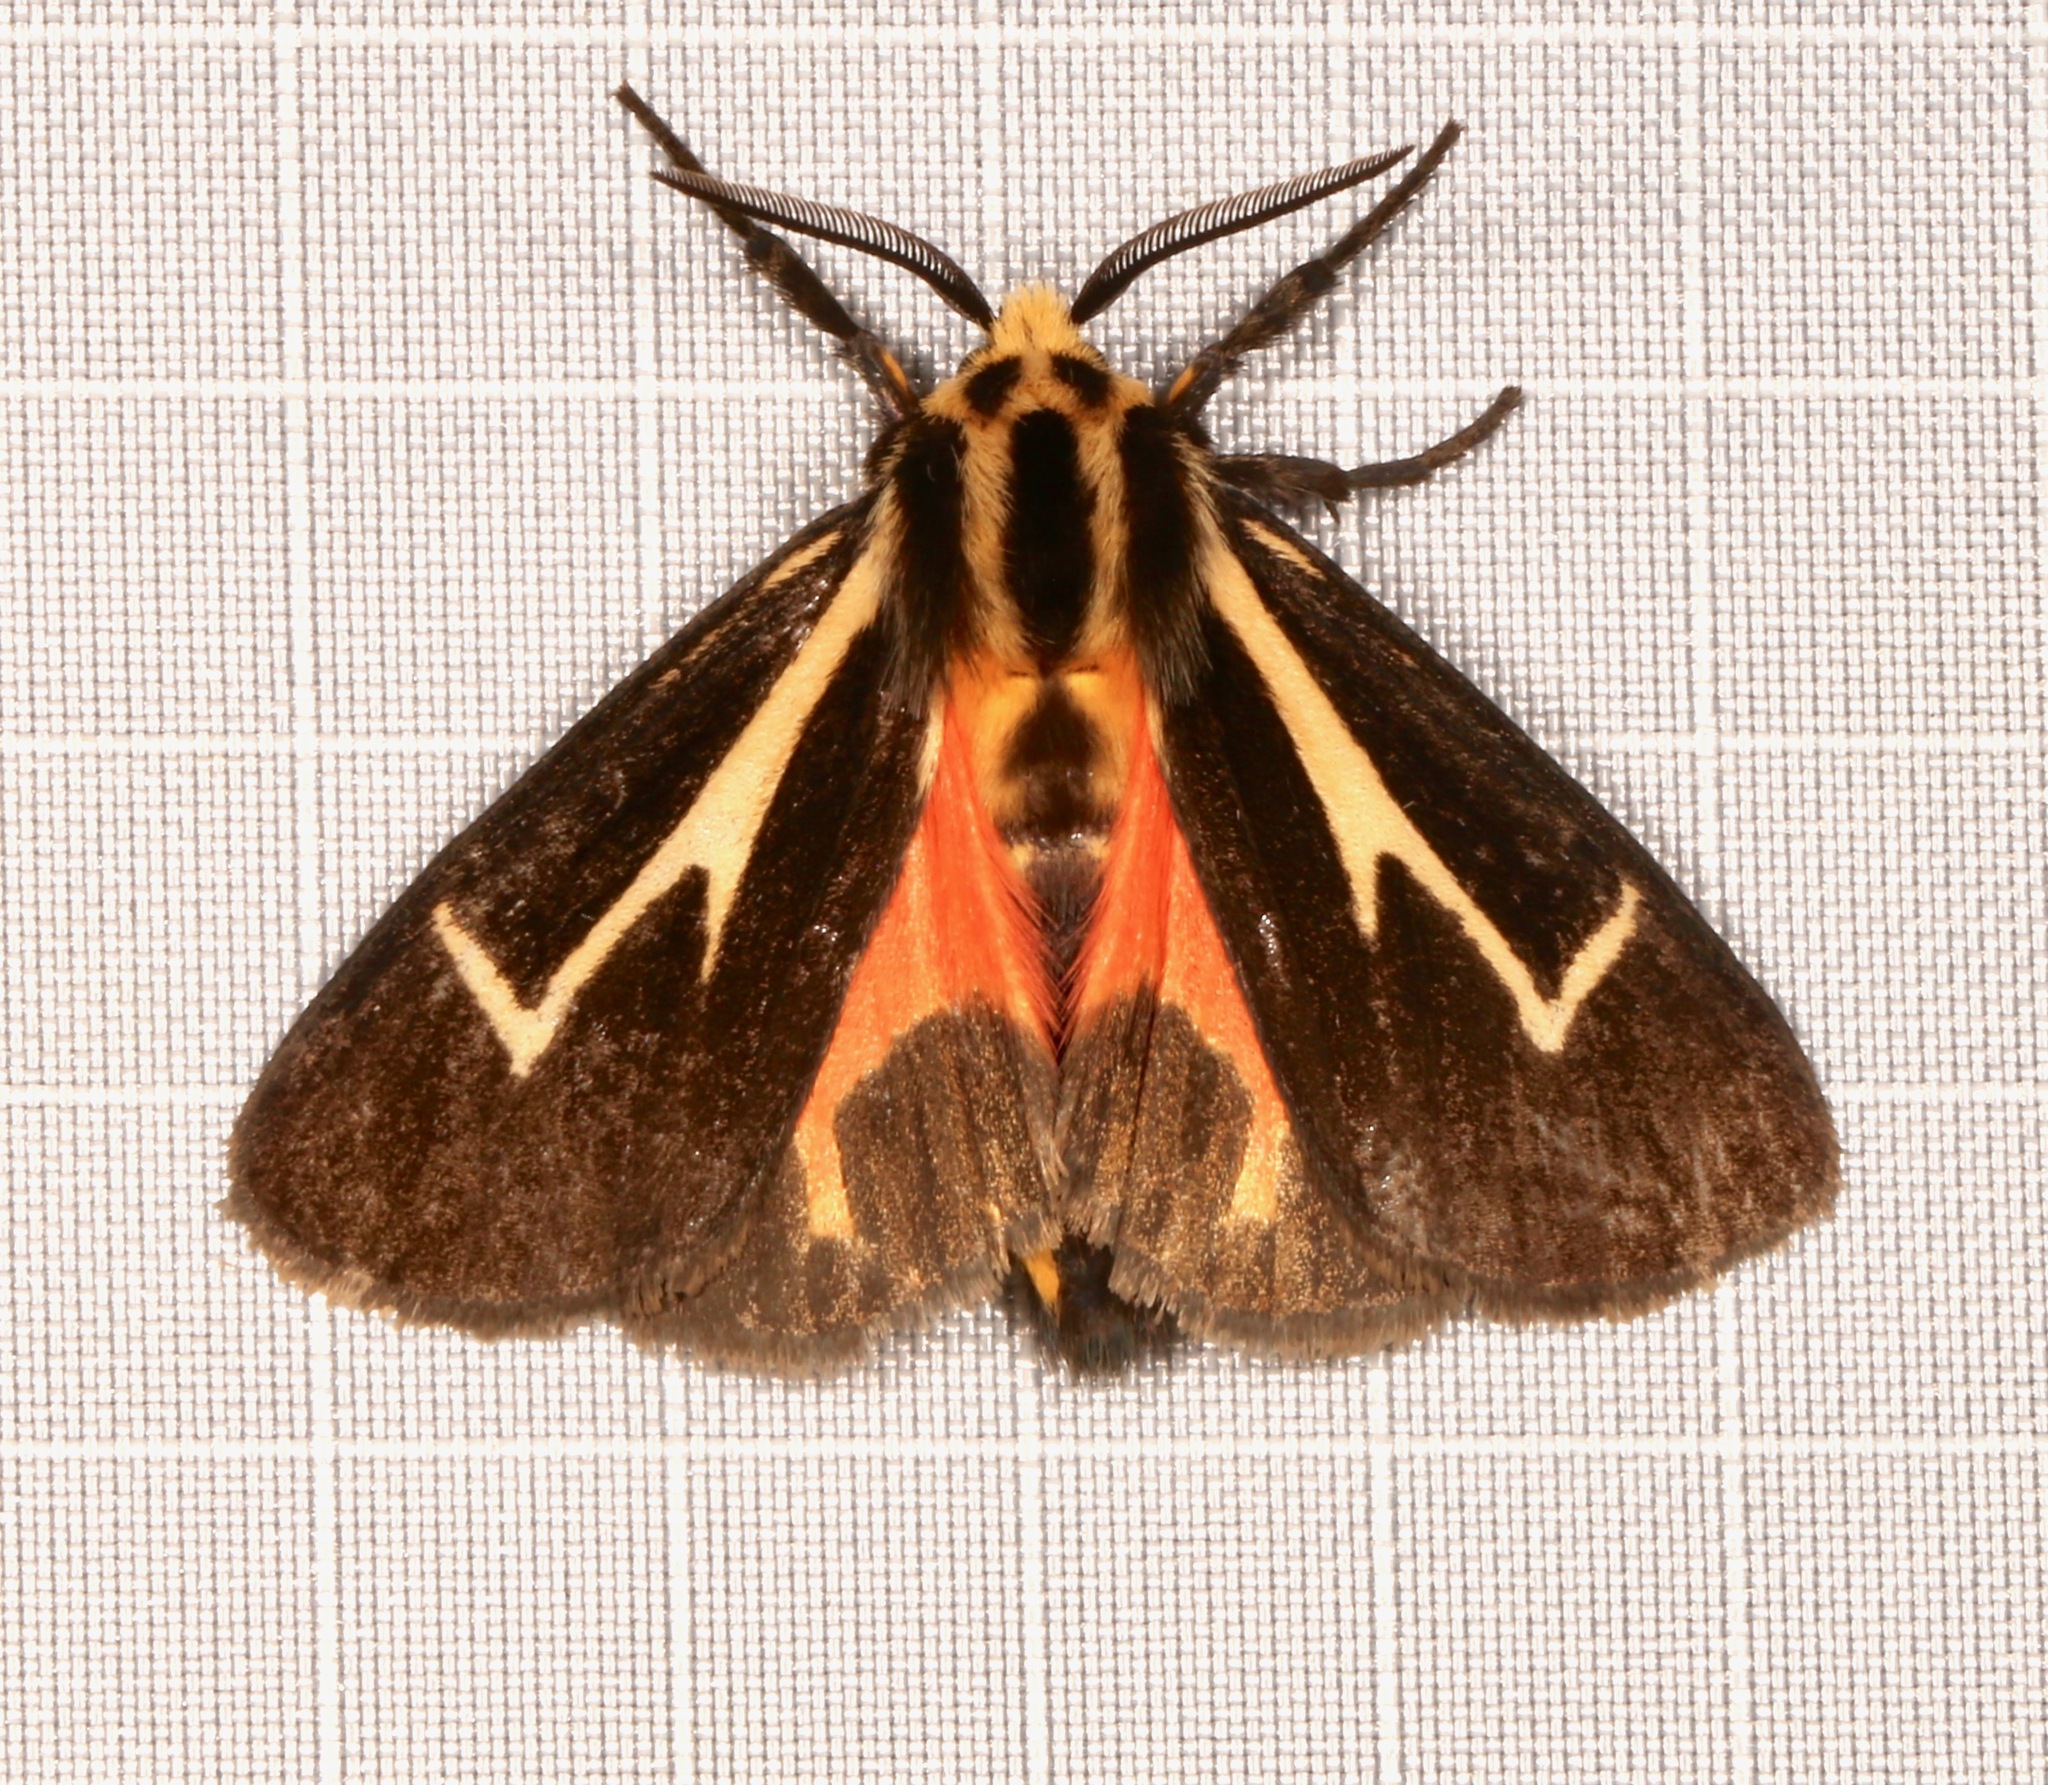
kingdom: Animalia
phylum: Arthropoda
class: Insecta
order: Lepidoptera
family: Erebidae
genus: Apantesis
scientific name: Apantesis vittata
